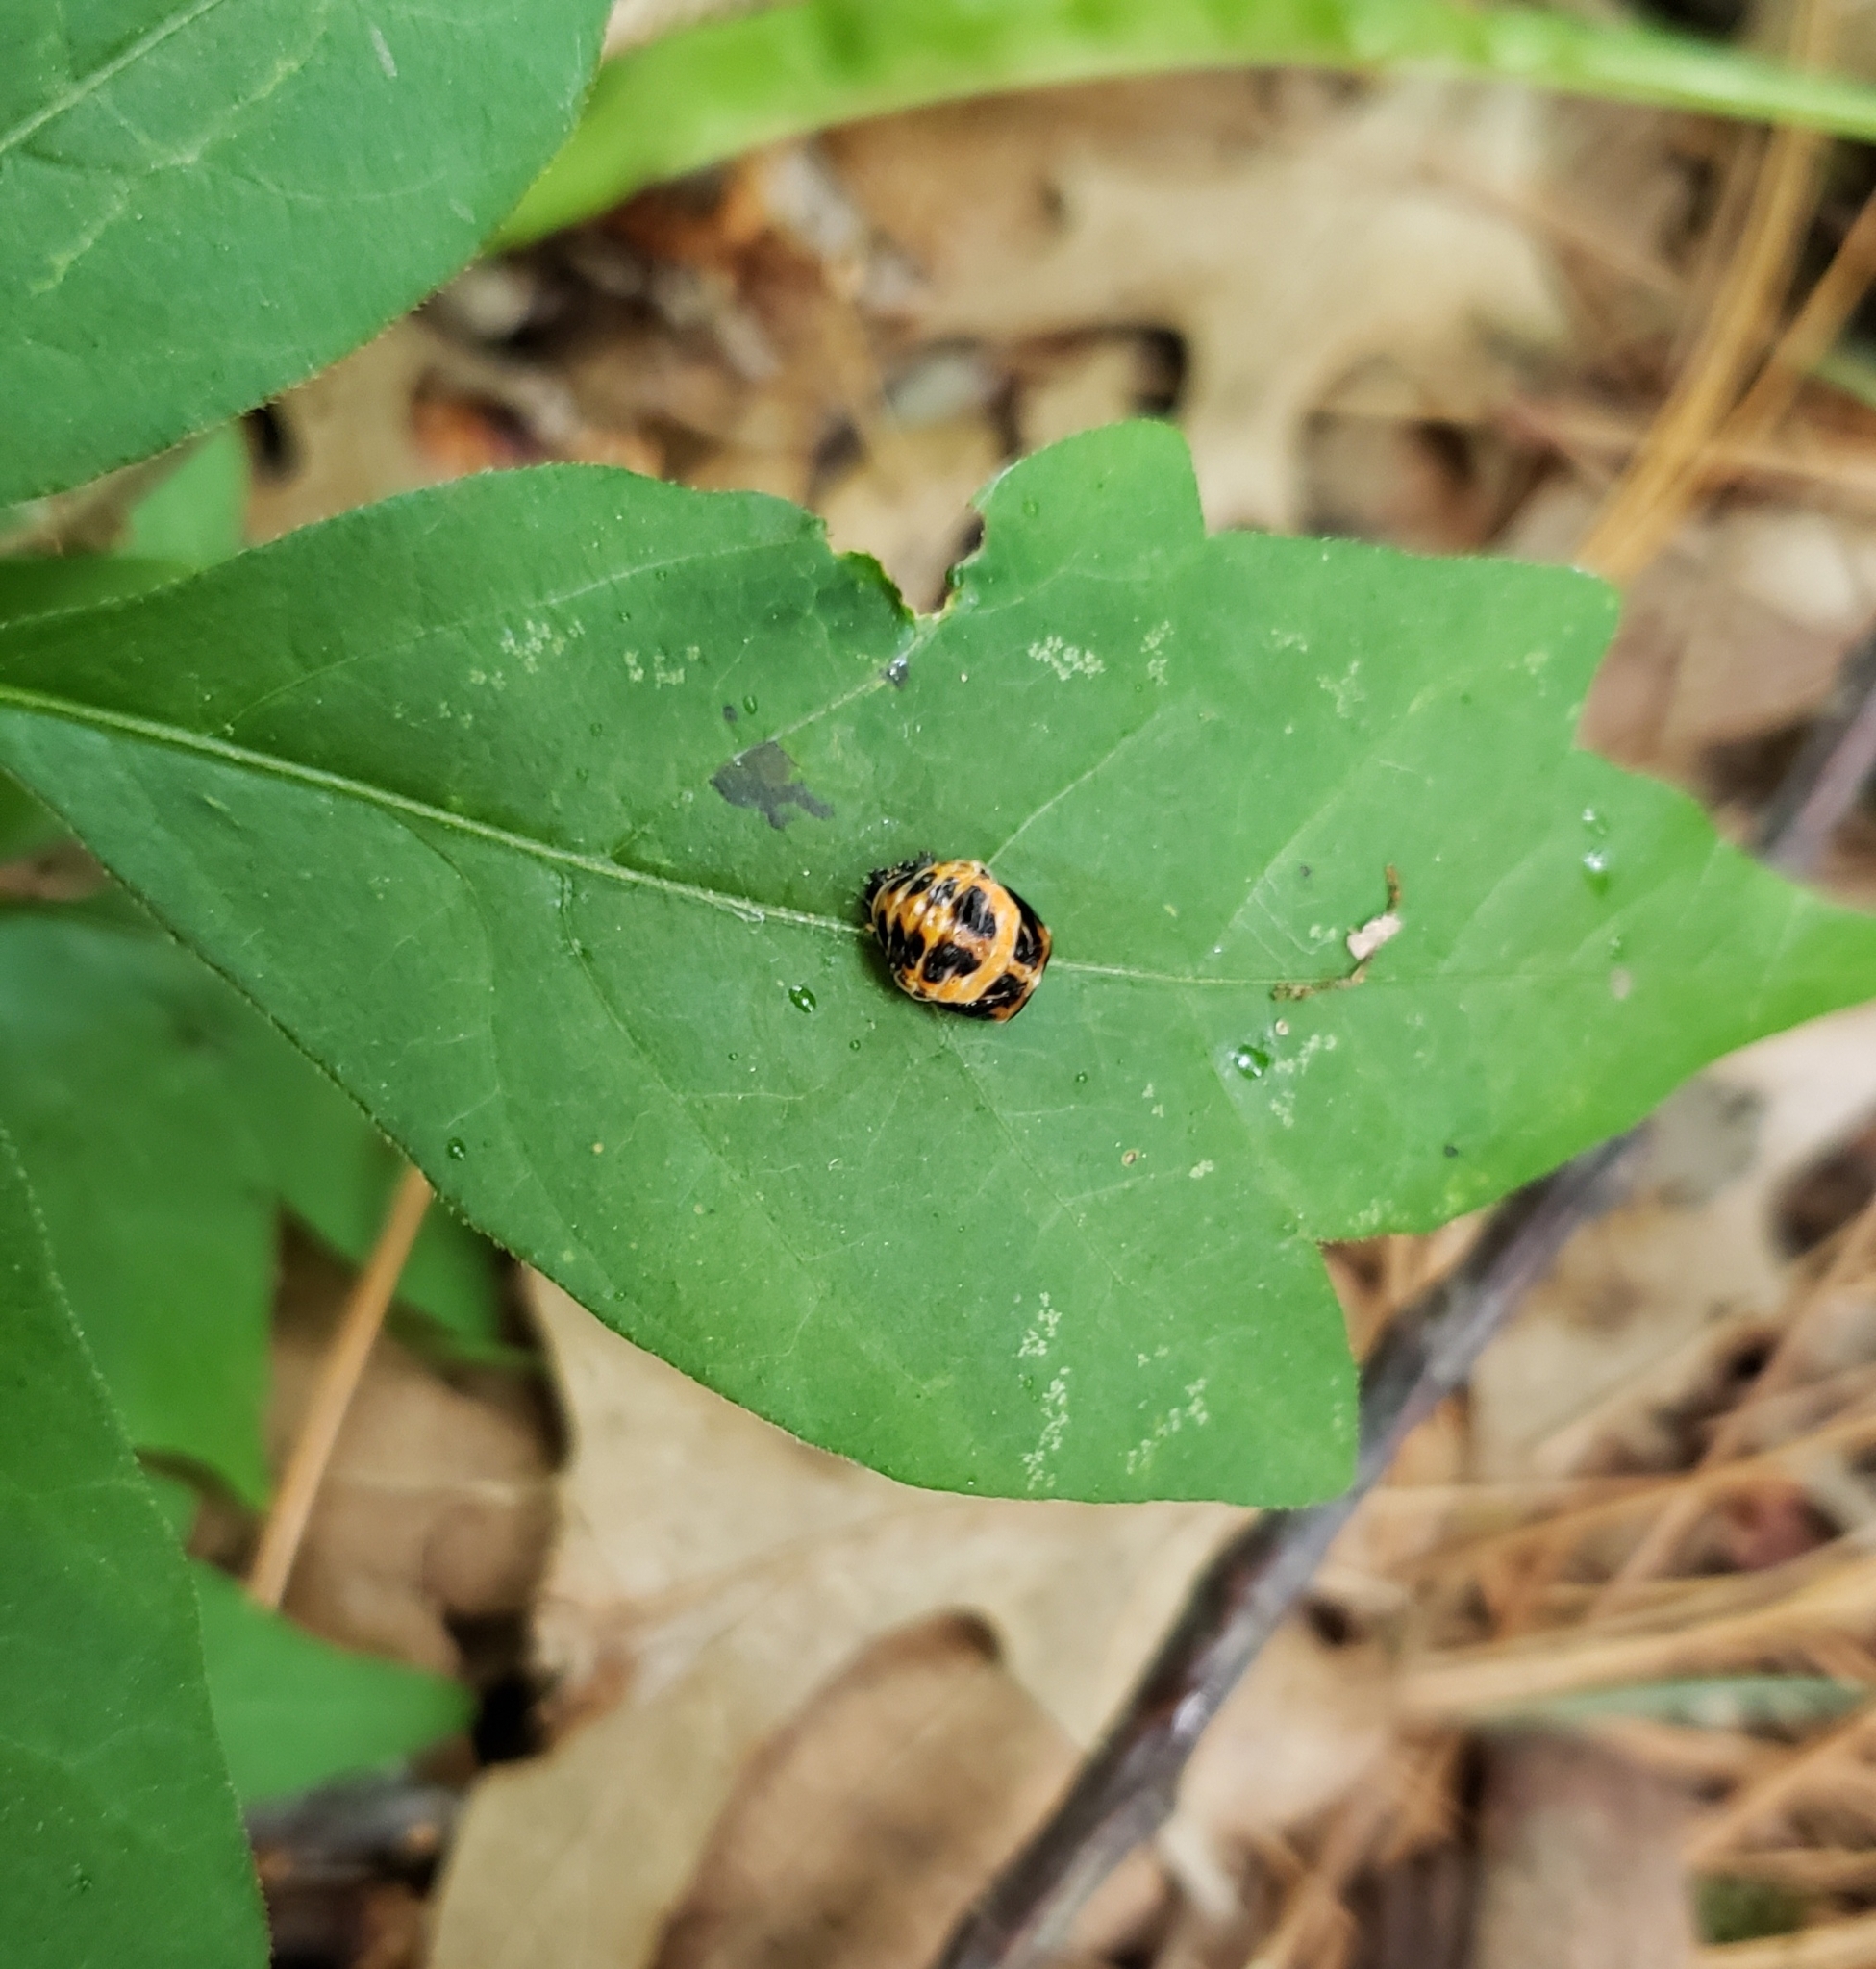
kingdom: Animalia
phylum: Arthropoda
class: Insecta
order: Coleoptera
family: Coccinellidae
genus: Harmonia
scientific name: Harmonia axyridis
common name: Harlequin ladybird
